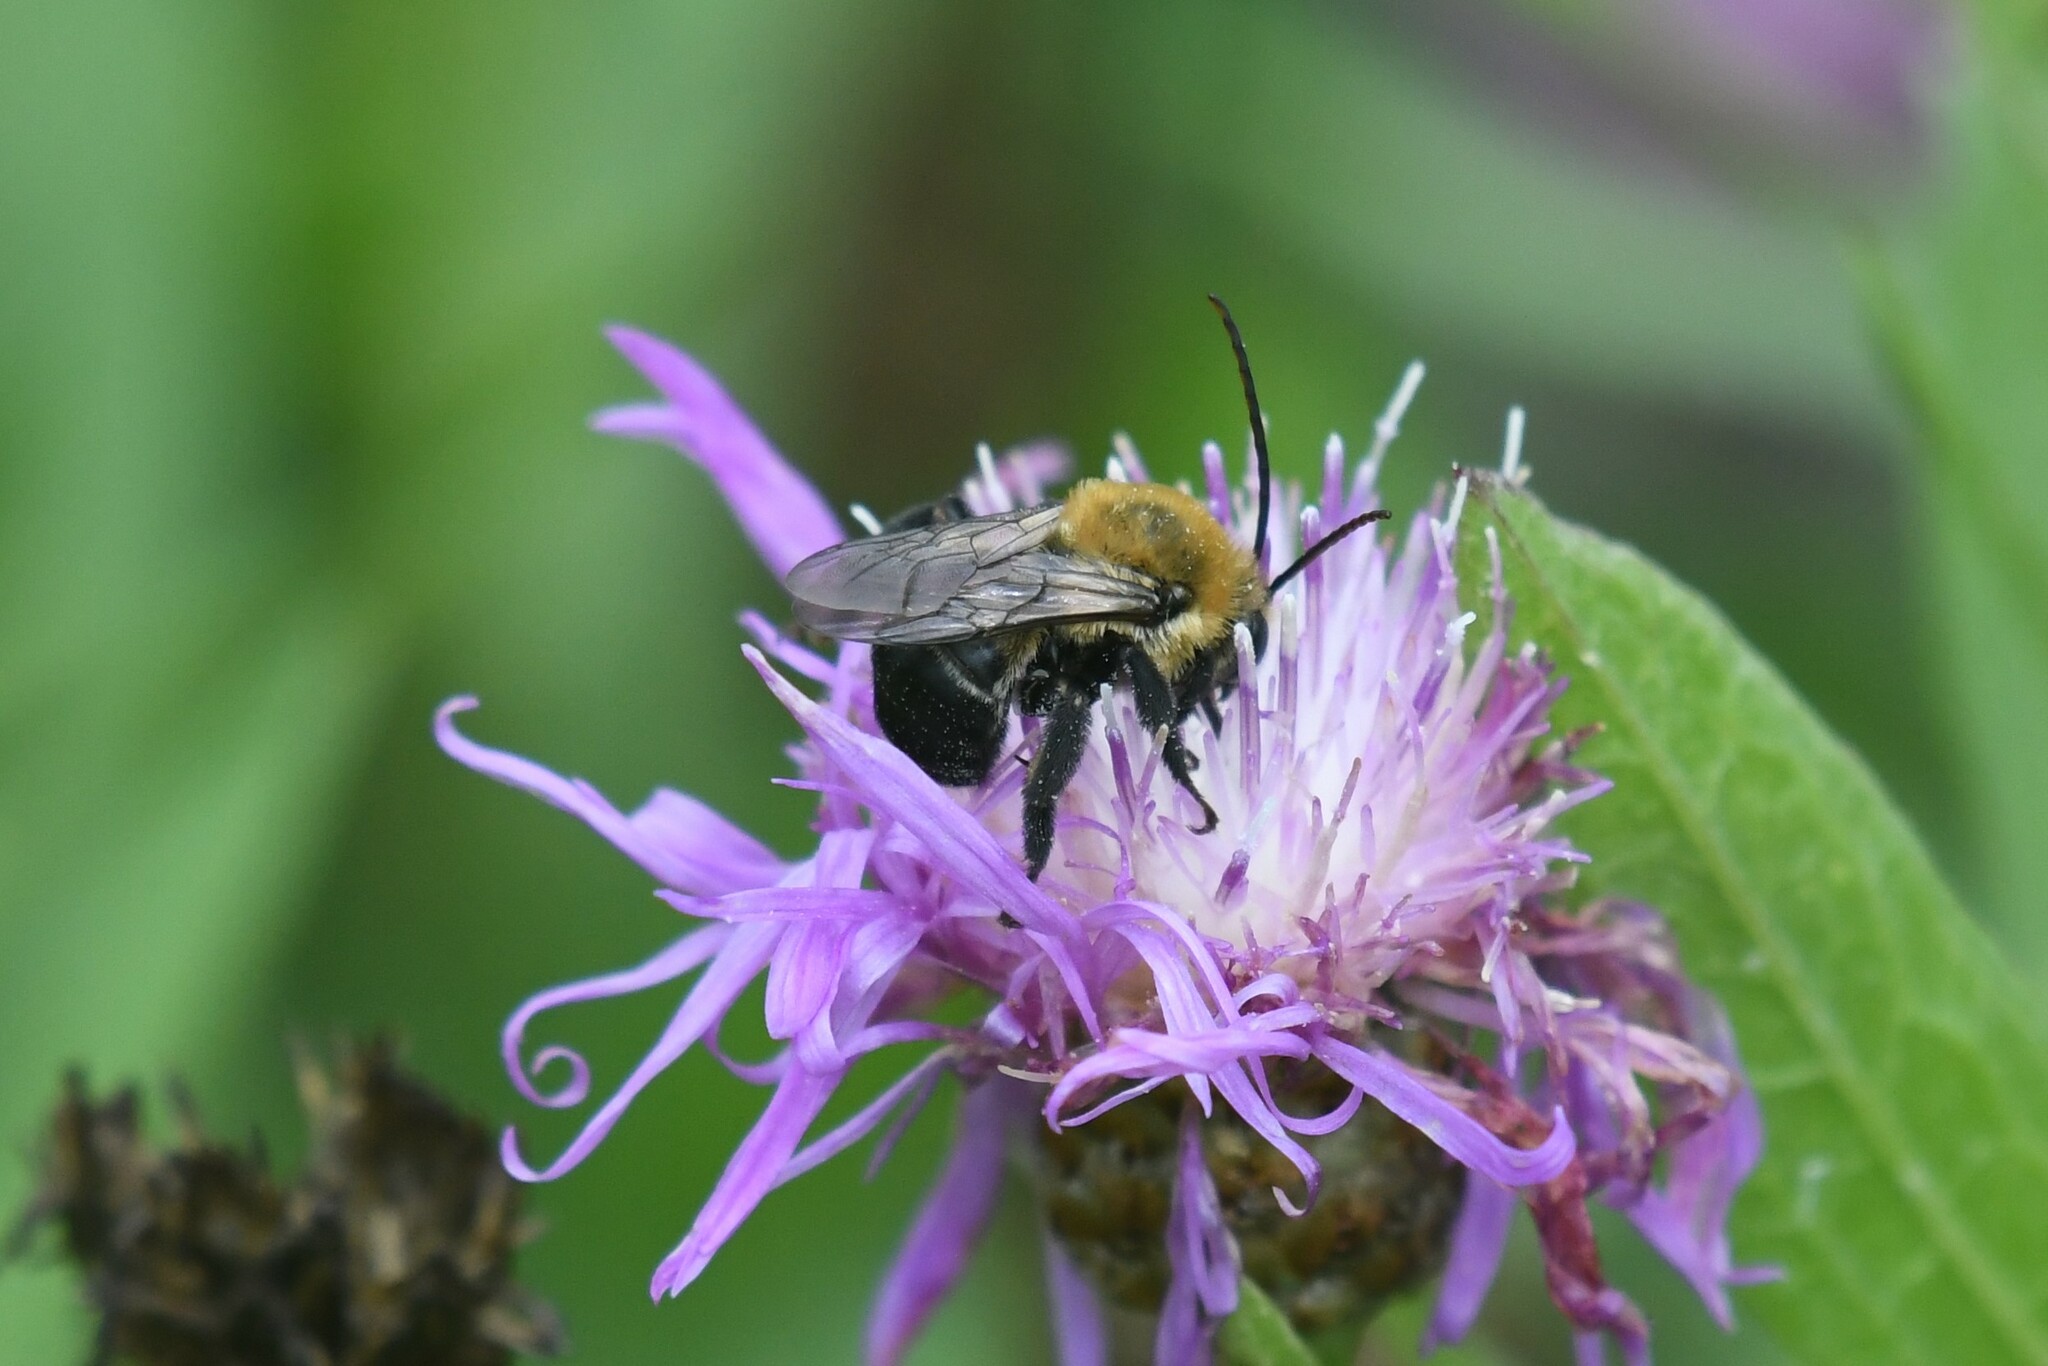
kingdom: Animalia
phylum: Arthropoda
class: Insecta
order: Hymenoptera
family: Apidae
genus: Melissodes
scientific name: Melissodes desponsus
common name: Thistle long-horned bee
